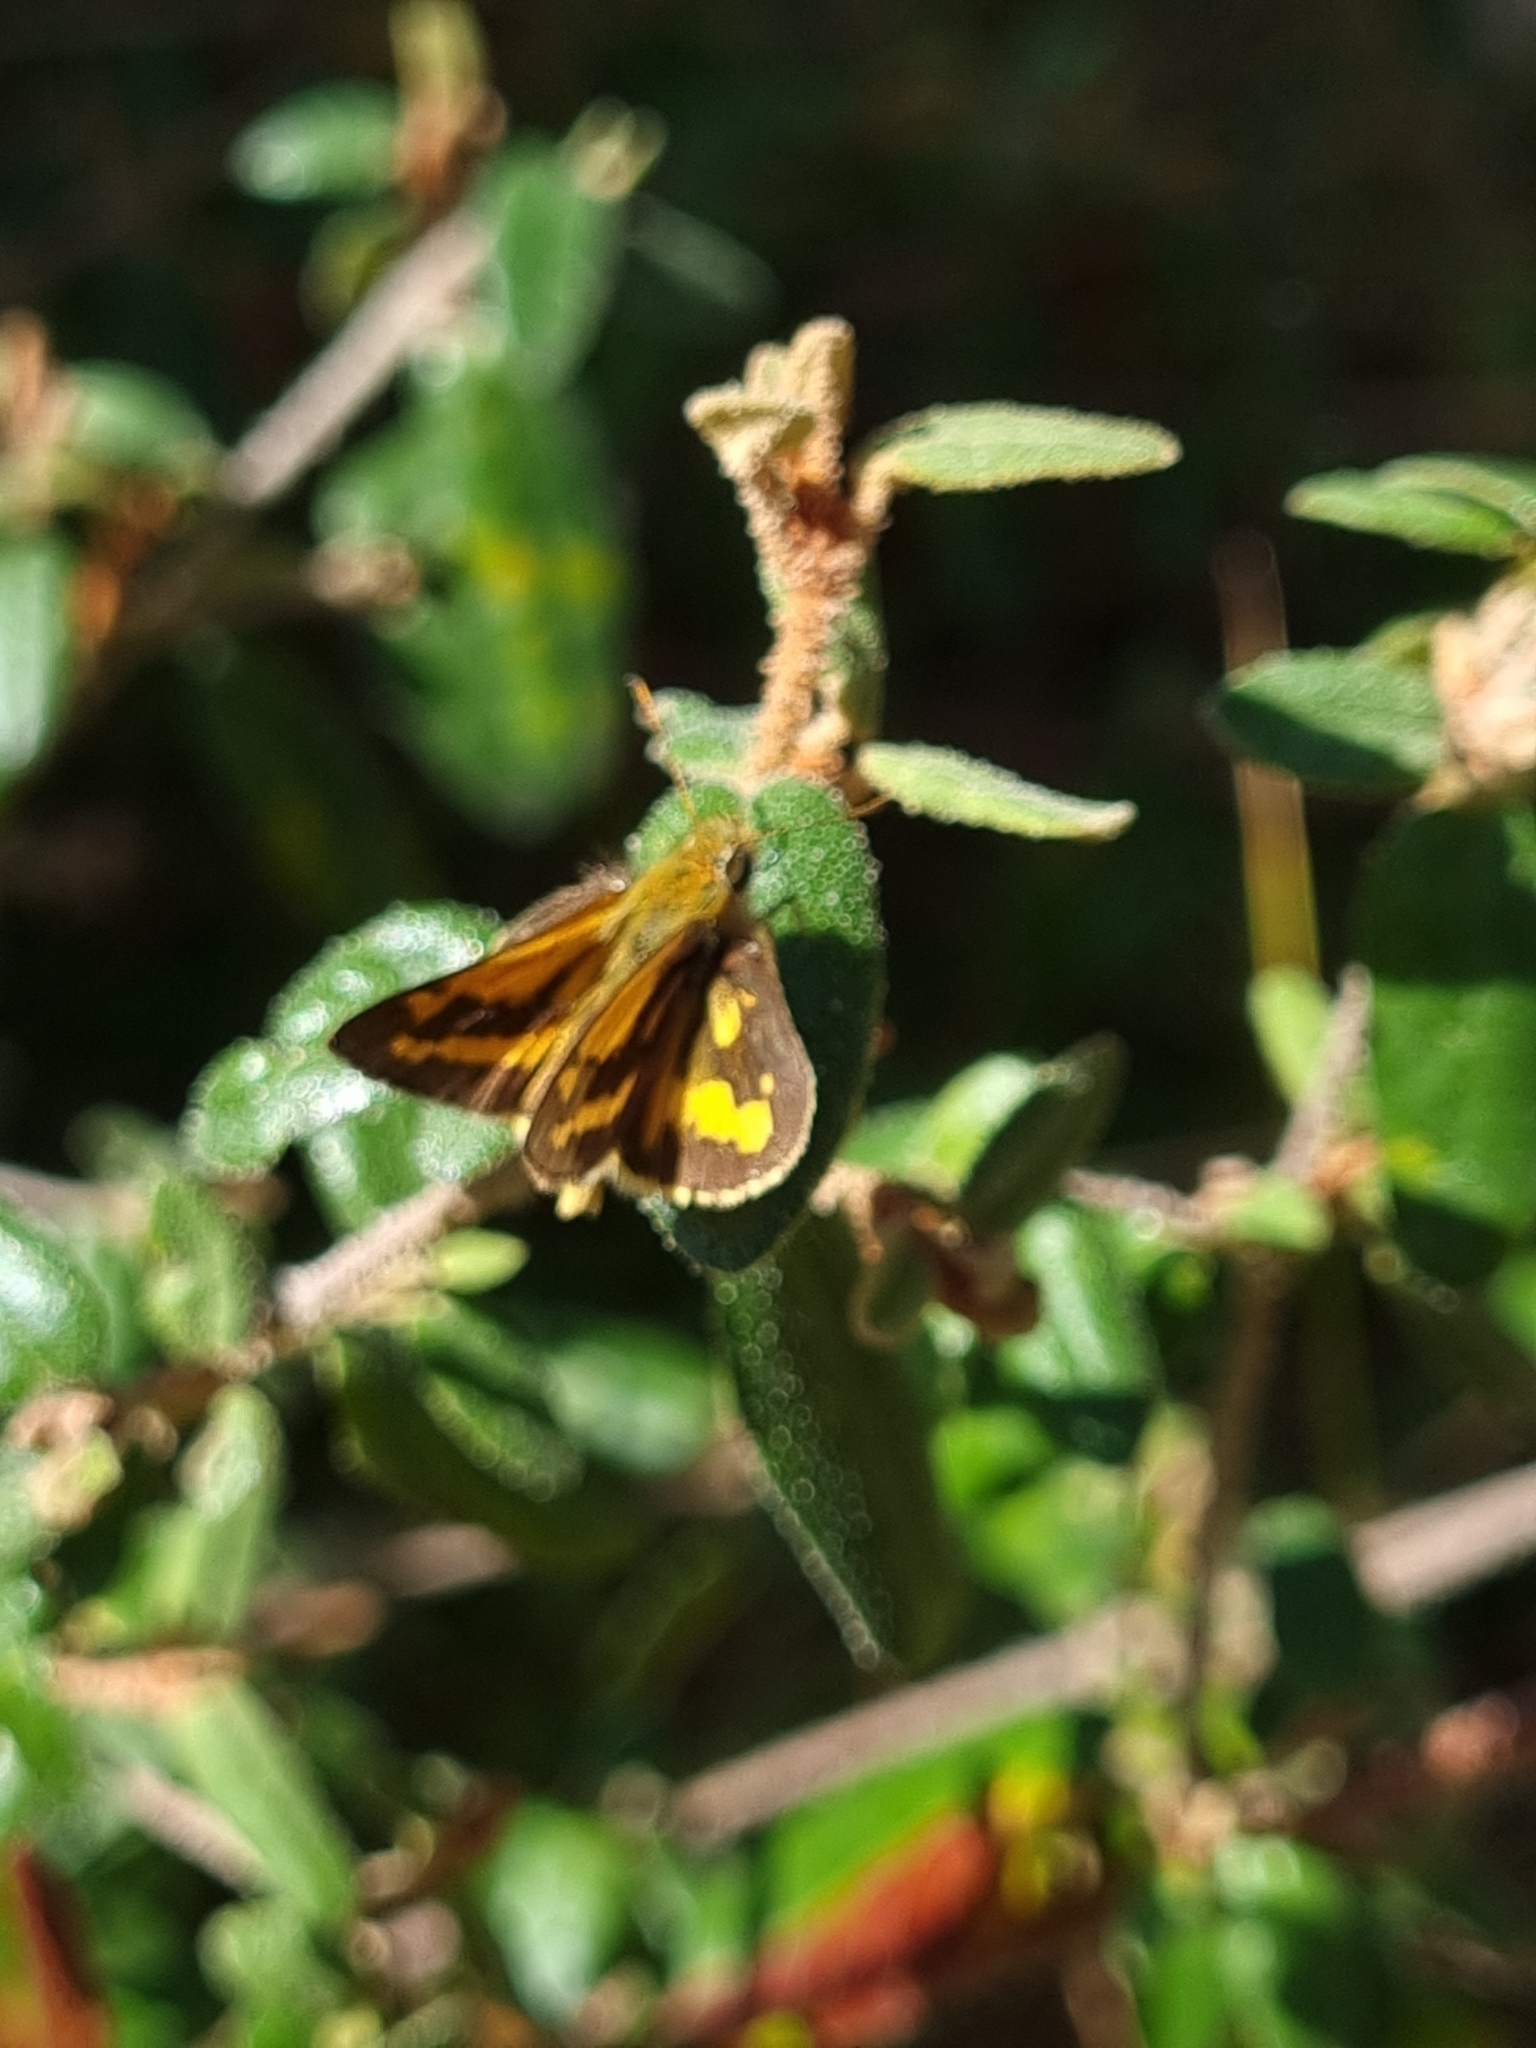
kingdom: Animalia
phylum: Arthropoda
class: Insecta
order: Lepidoptera
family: Hesperiidae
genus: Ocybadistes
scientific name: Ocybadistes walkeri
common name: Yellow-banded dart
